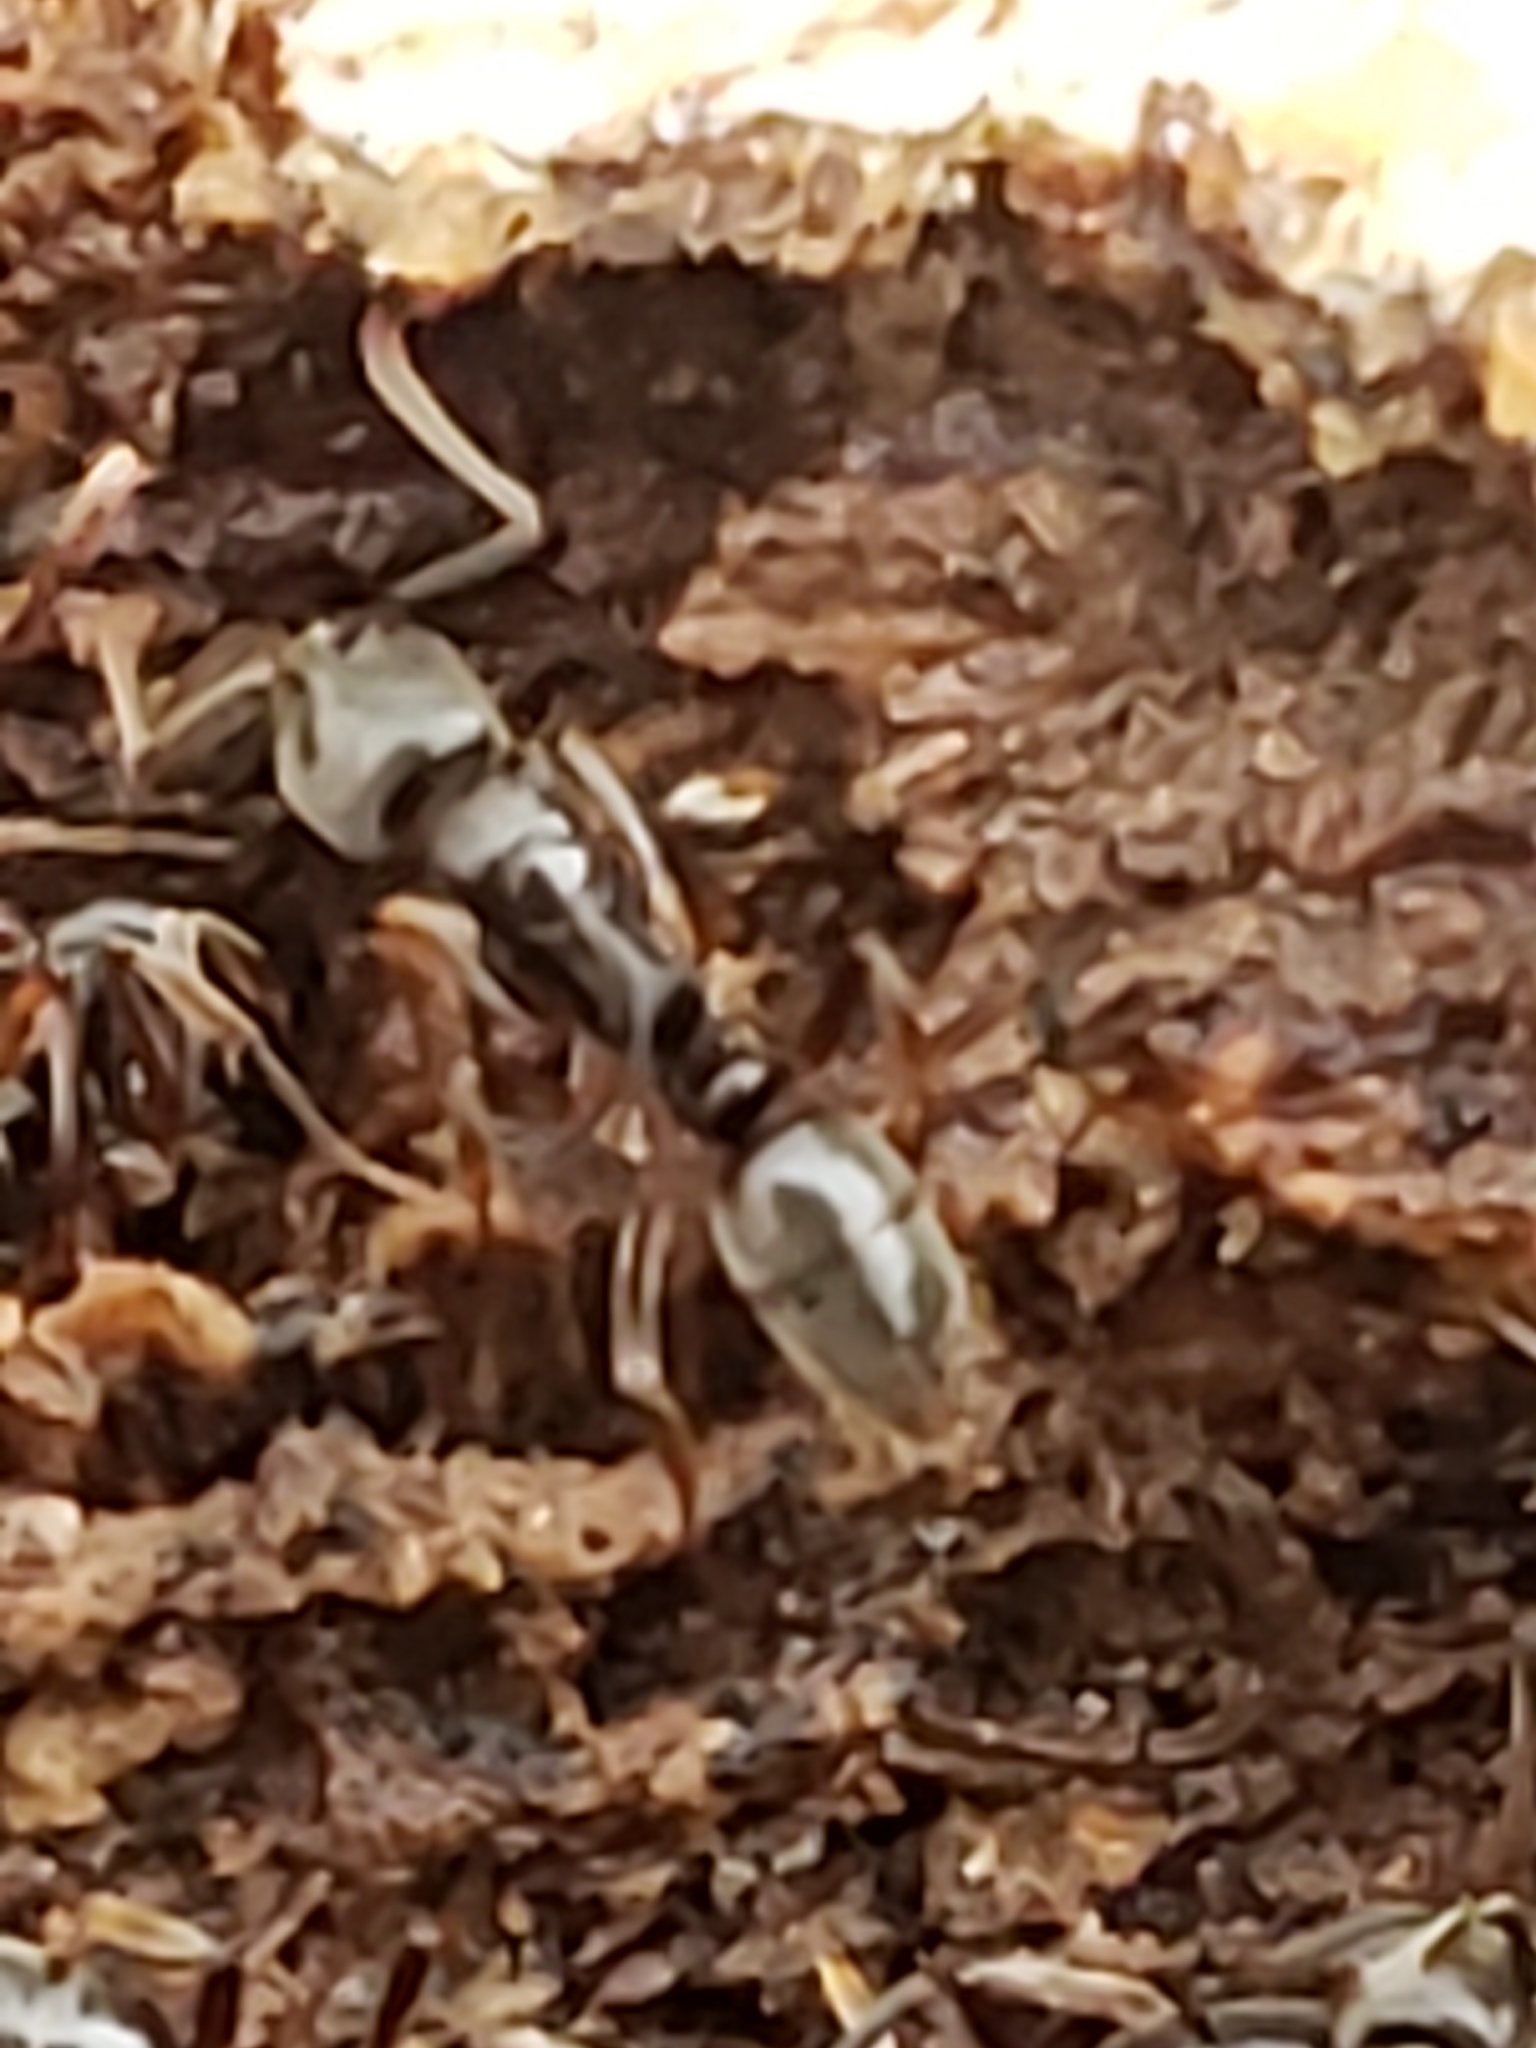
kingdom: Animalia
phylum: Arthropoda
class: Insecta
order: Hymenoptera
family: Formicidae
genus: Pachycondyla
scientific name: Pachycondyla chinensis
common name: Asian needle ant
